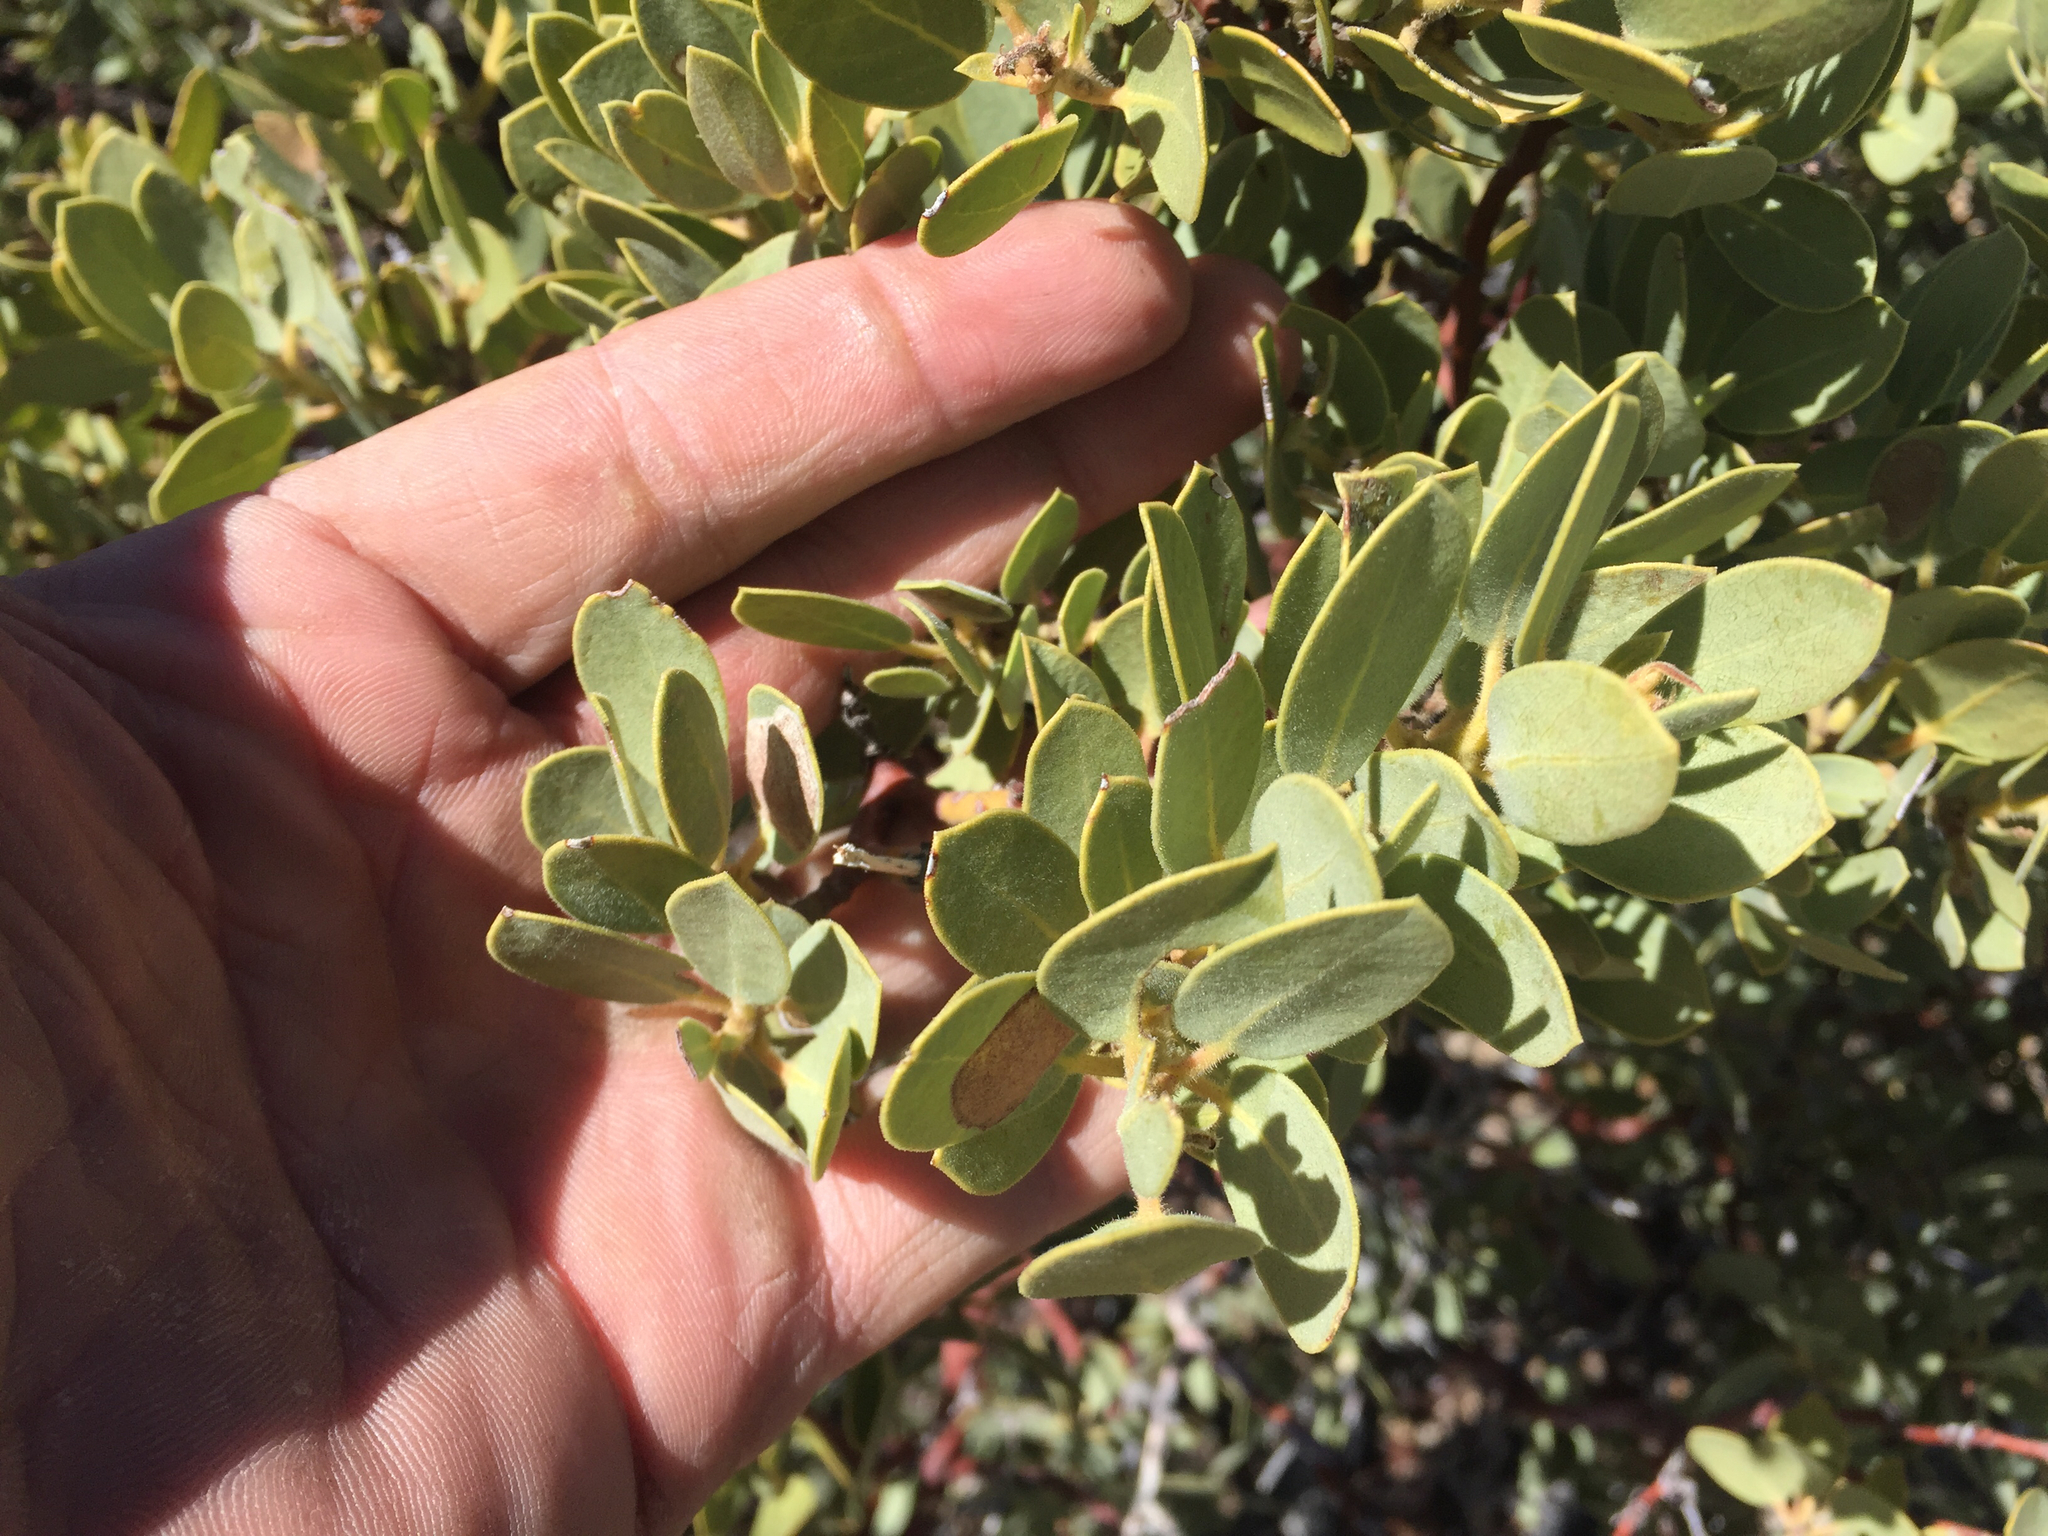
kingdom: Plantae
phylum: Tracheophyta
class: Magnoliopsida
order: Ericales
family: Ericaceae
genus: Arctostaphylos
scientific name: Arctostaphylos pringlei
